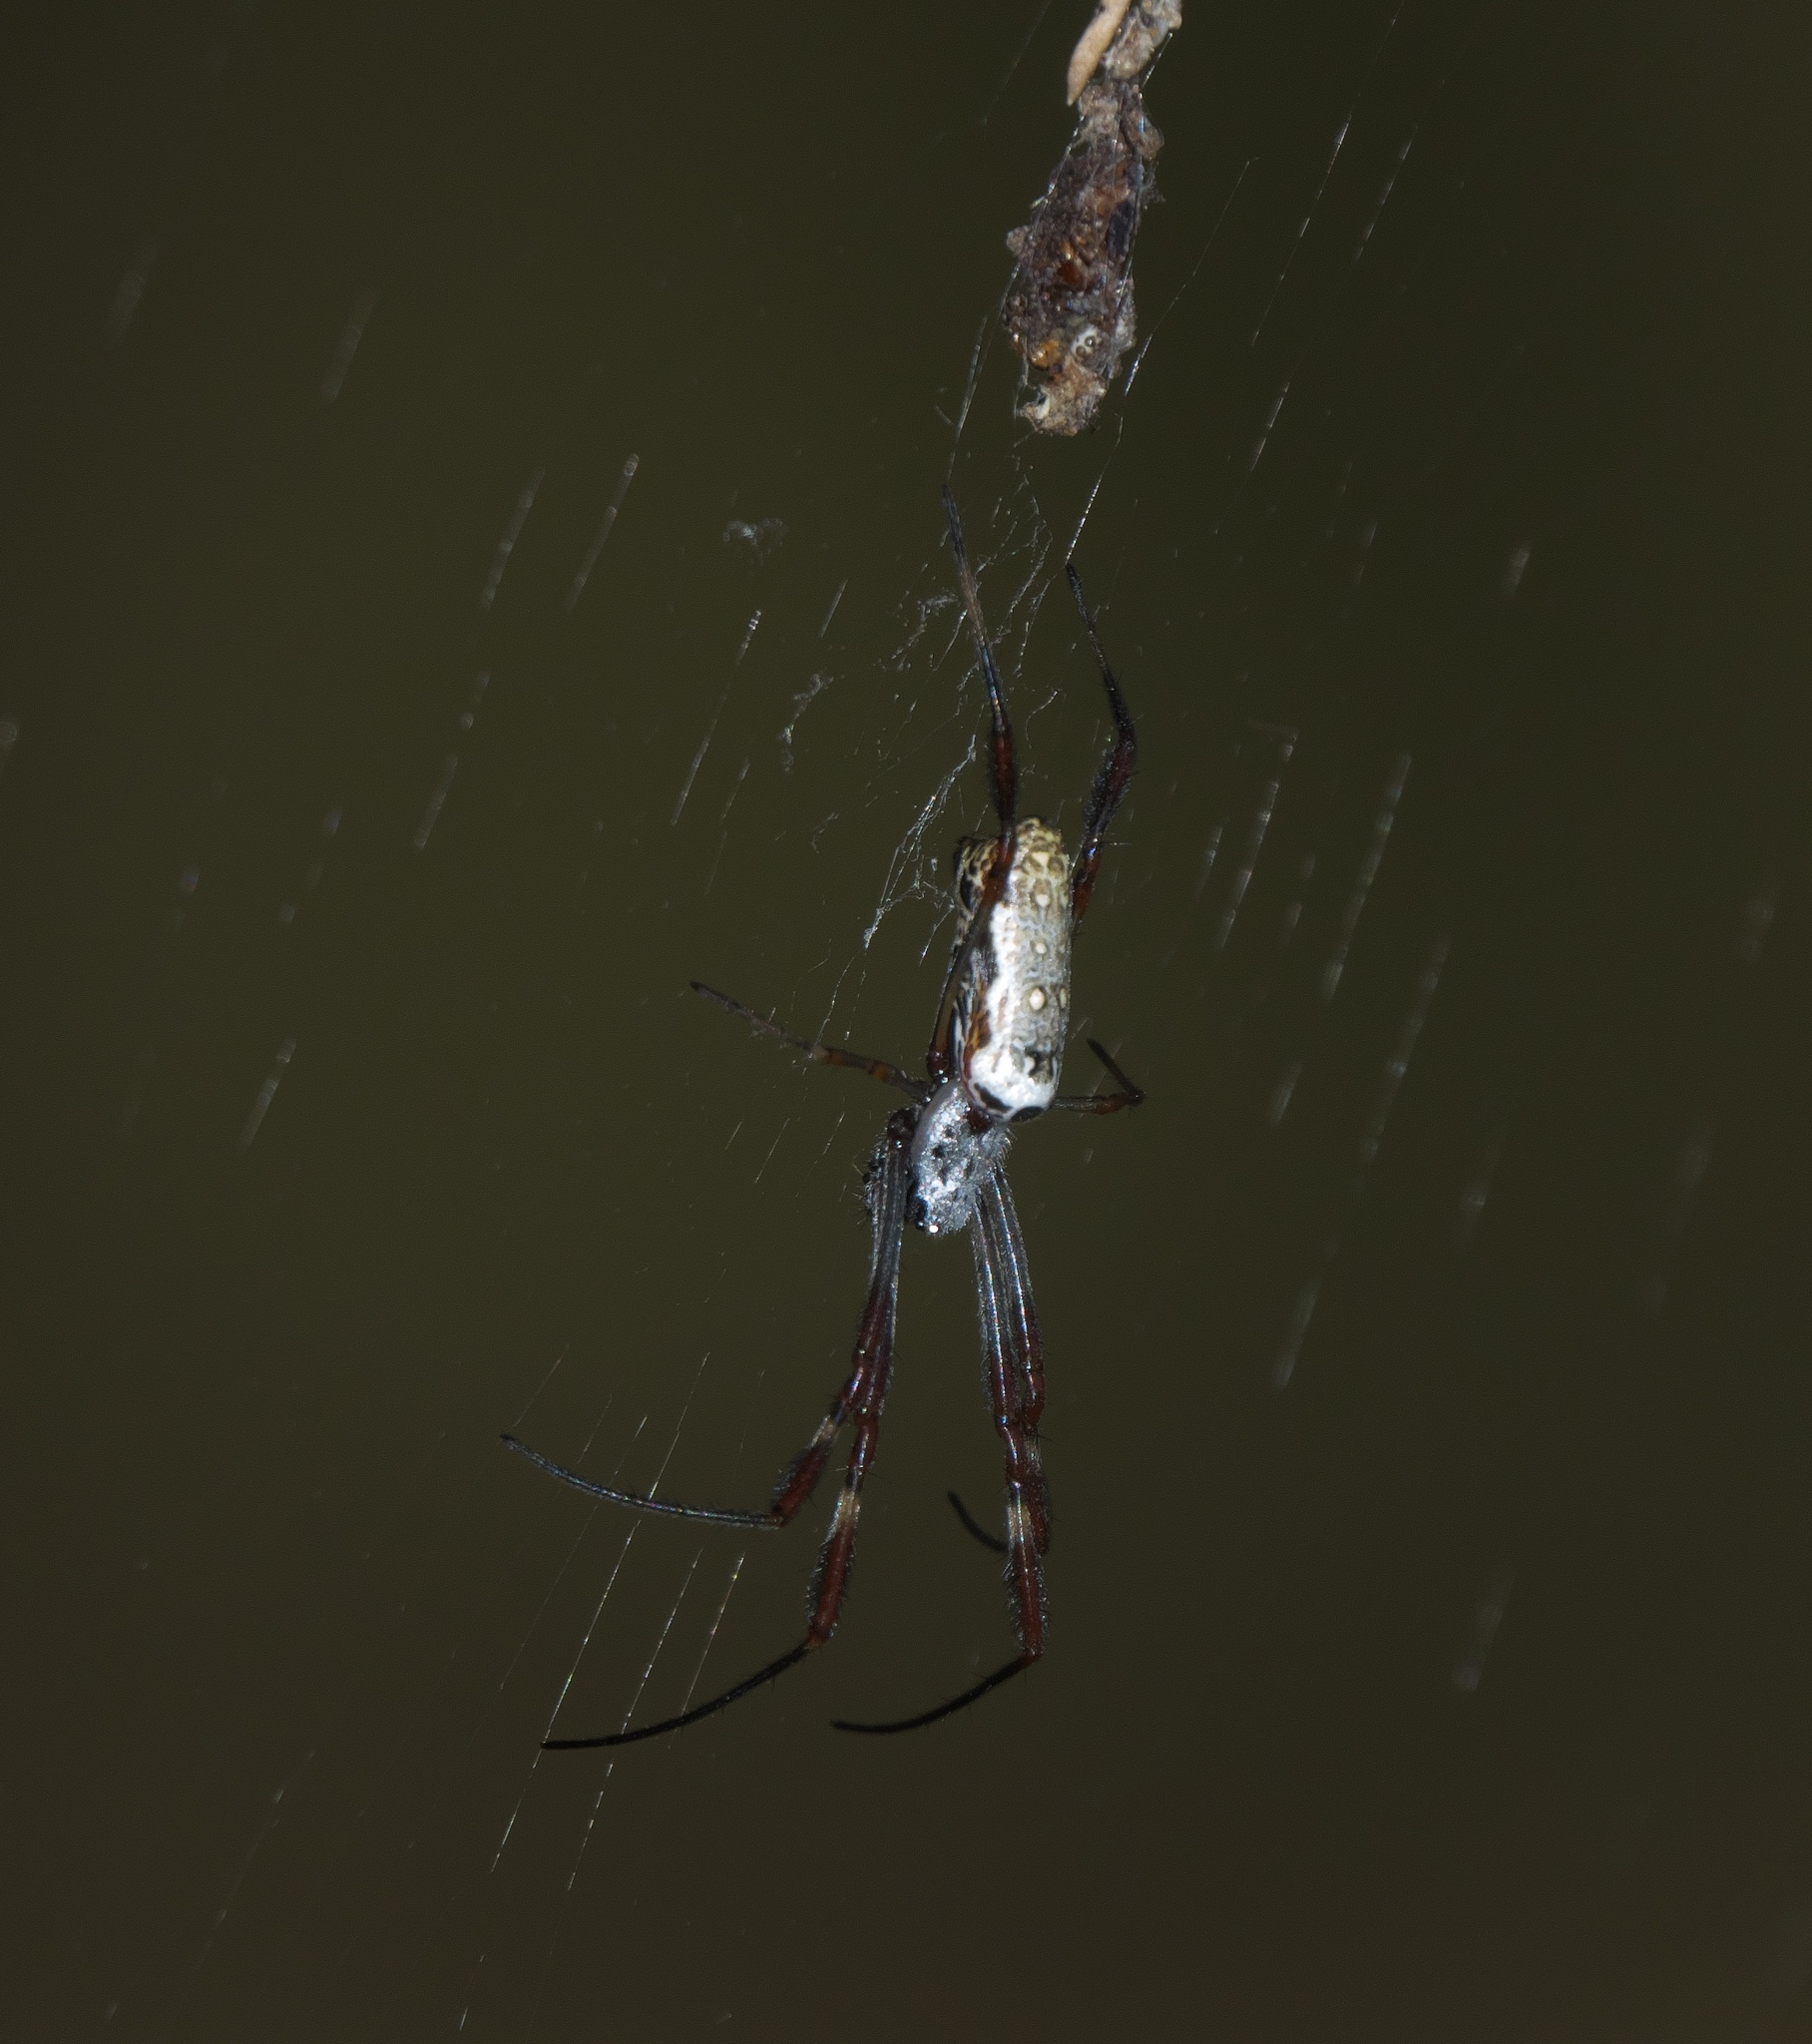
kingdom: Animalia
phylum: Arthropoda
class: Arachnida
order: Araneae
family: Araneidae
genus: Trichonephila
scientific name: Trichonephila edulis
